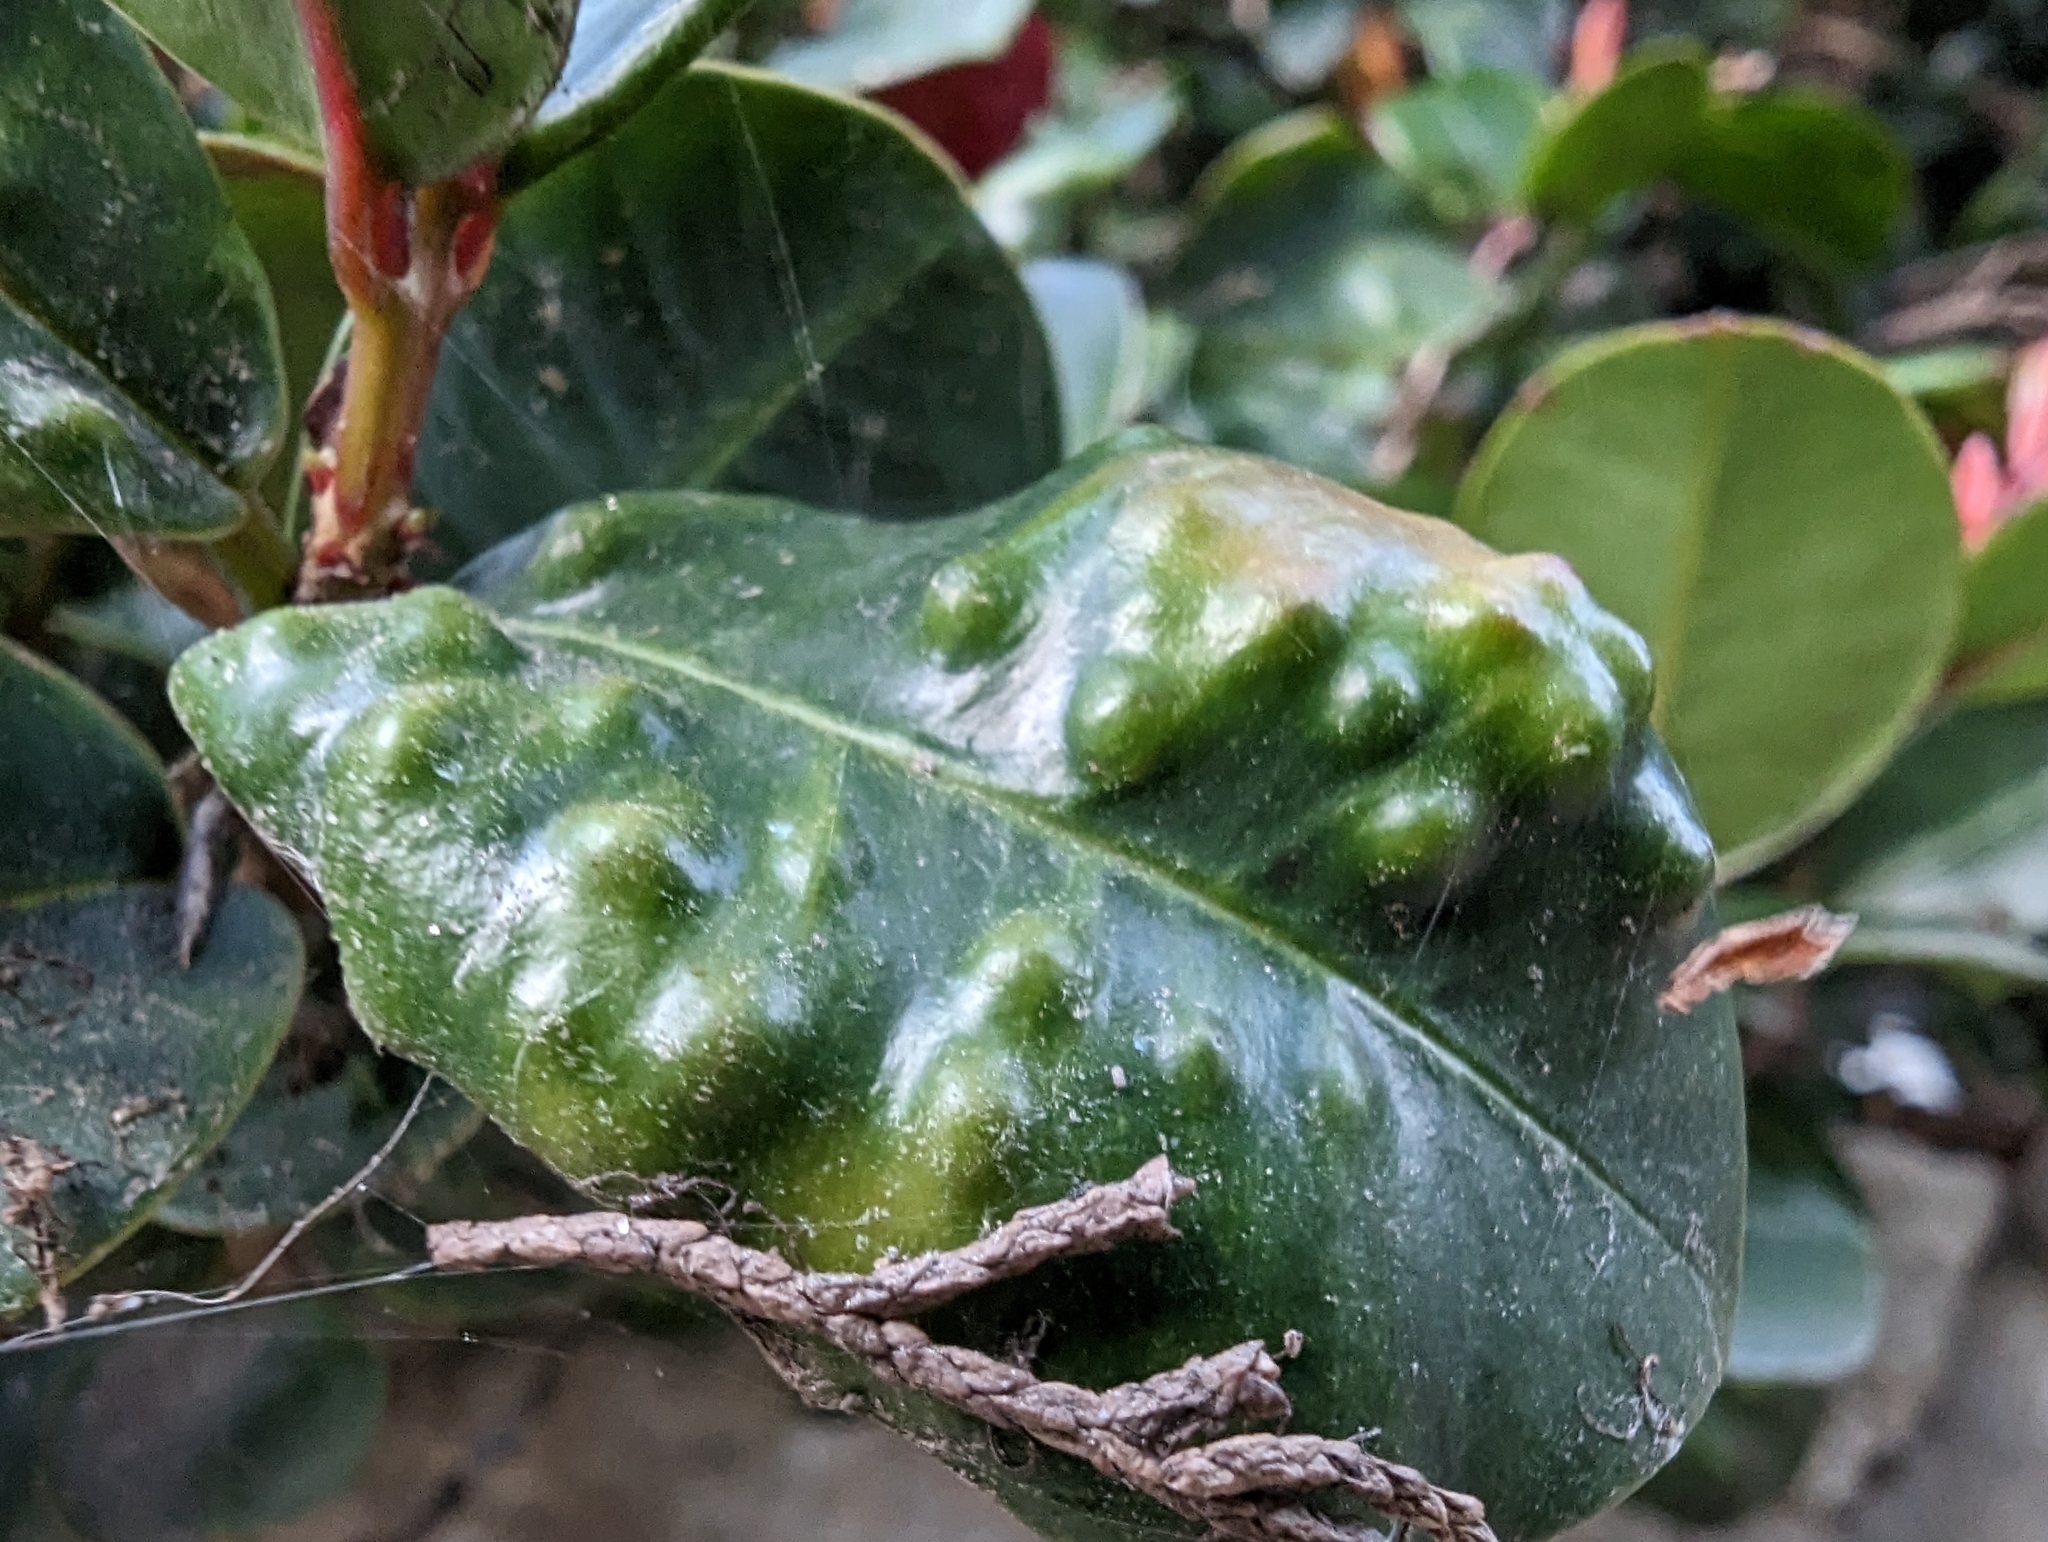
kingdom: Animalia
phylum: Arthropoda
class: Insecta
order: Hemiptera
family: Triozidae
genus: Trioza
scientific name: Trioza adventicia
